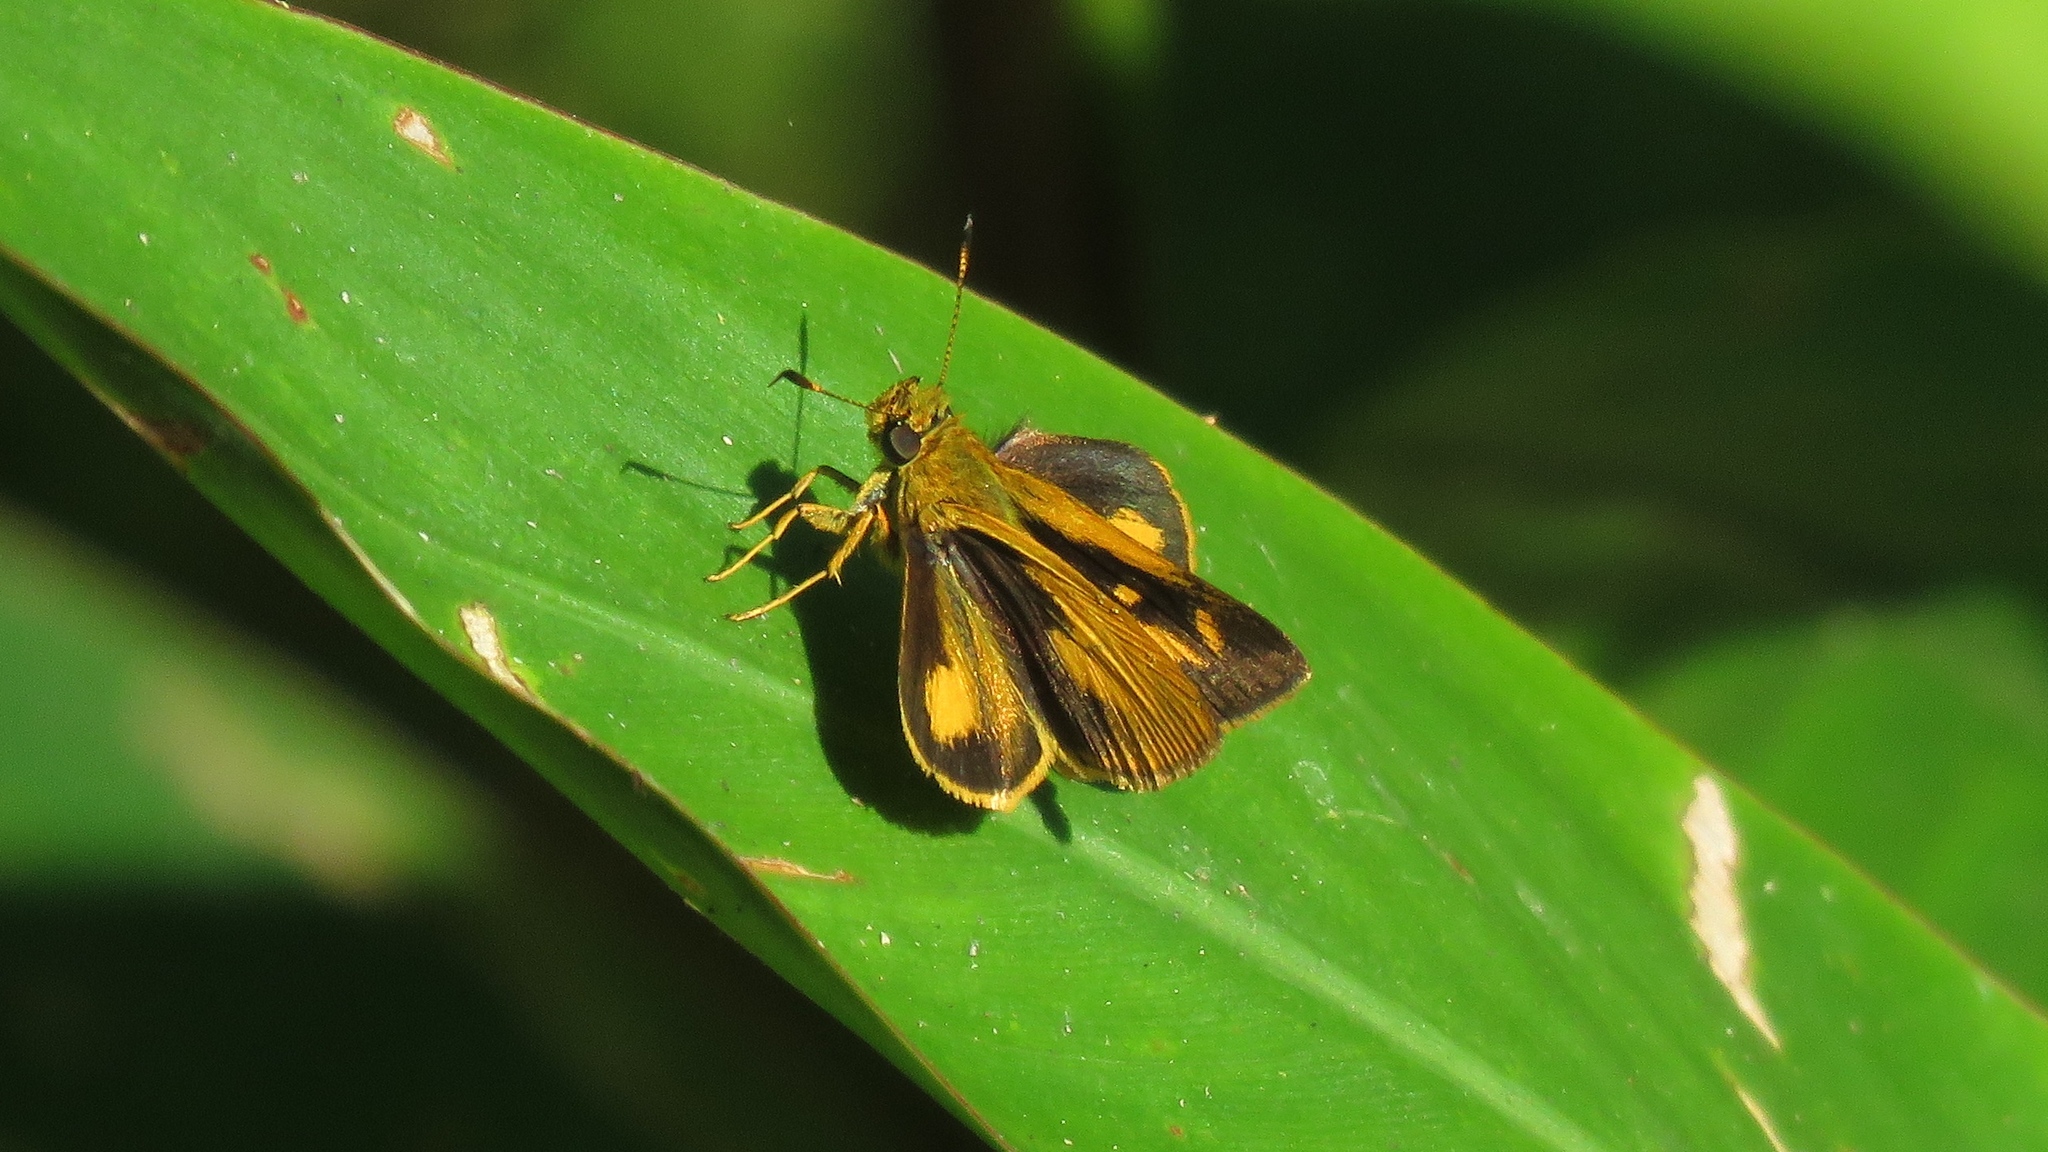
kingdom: Animalia
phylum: Arthropoda
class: Insecta
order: Lepidoptera
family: Hesperiidae
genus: Anthoptus
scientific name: Anthoptus epictetus
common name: Trailside skipper
